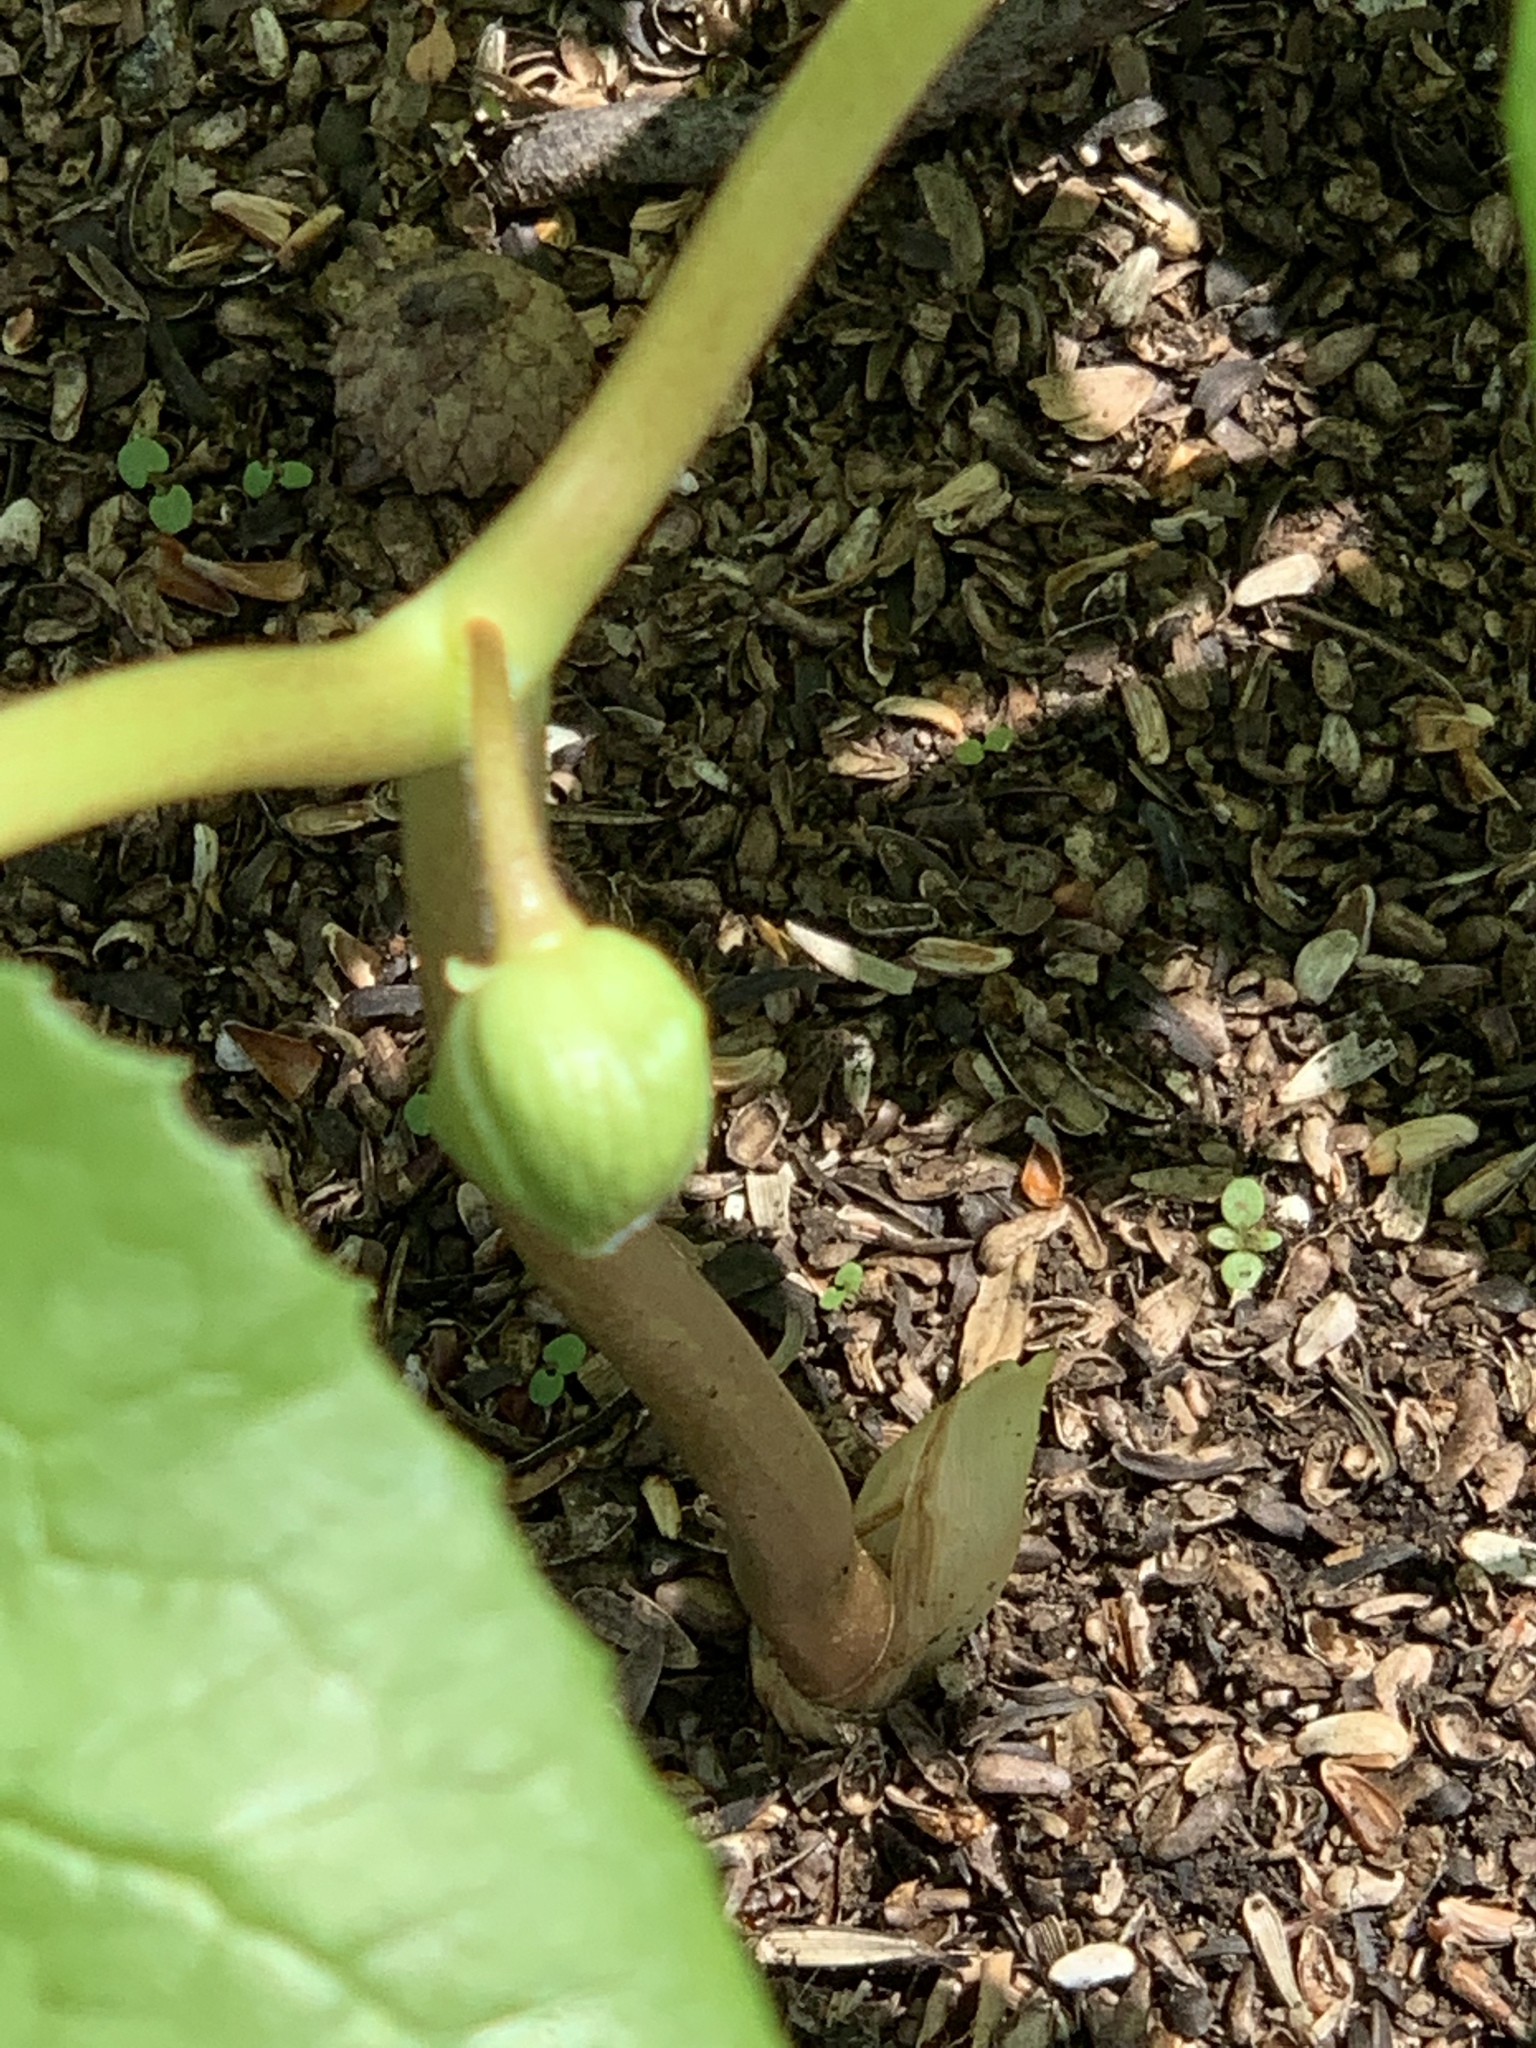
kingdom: Plantae
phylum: Tracheophyta
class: Magnoliopsida
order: Ranunculales
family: Berberidaceae
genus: Podophyllum
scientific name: Podophyllum peltatum
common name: Wild mandrake
